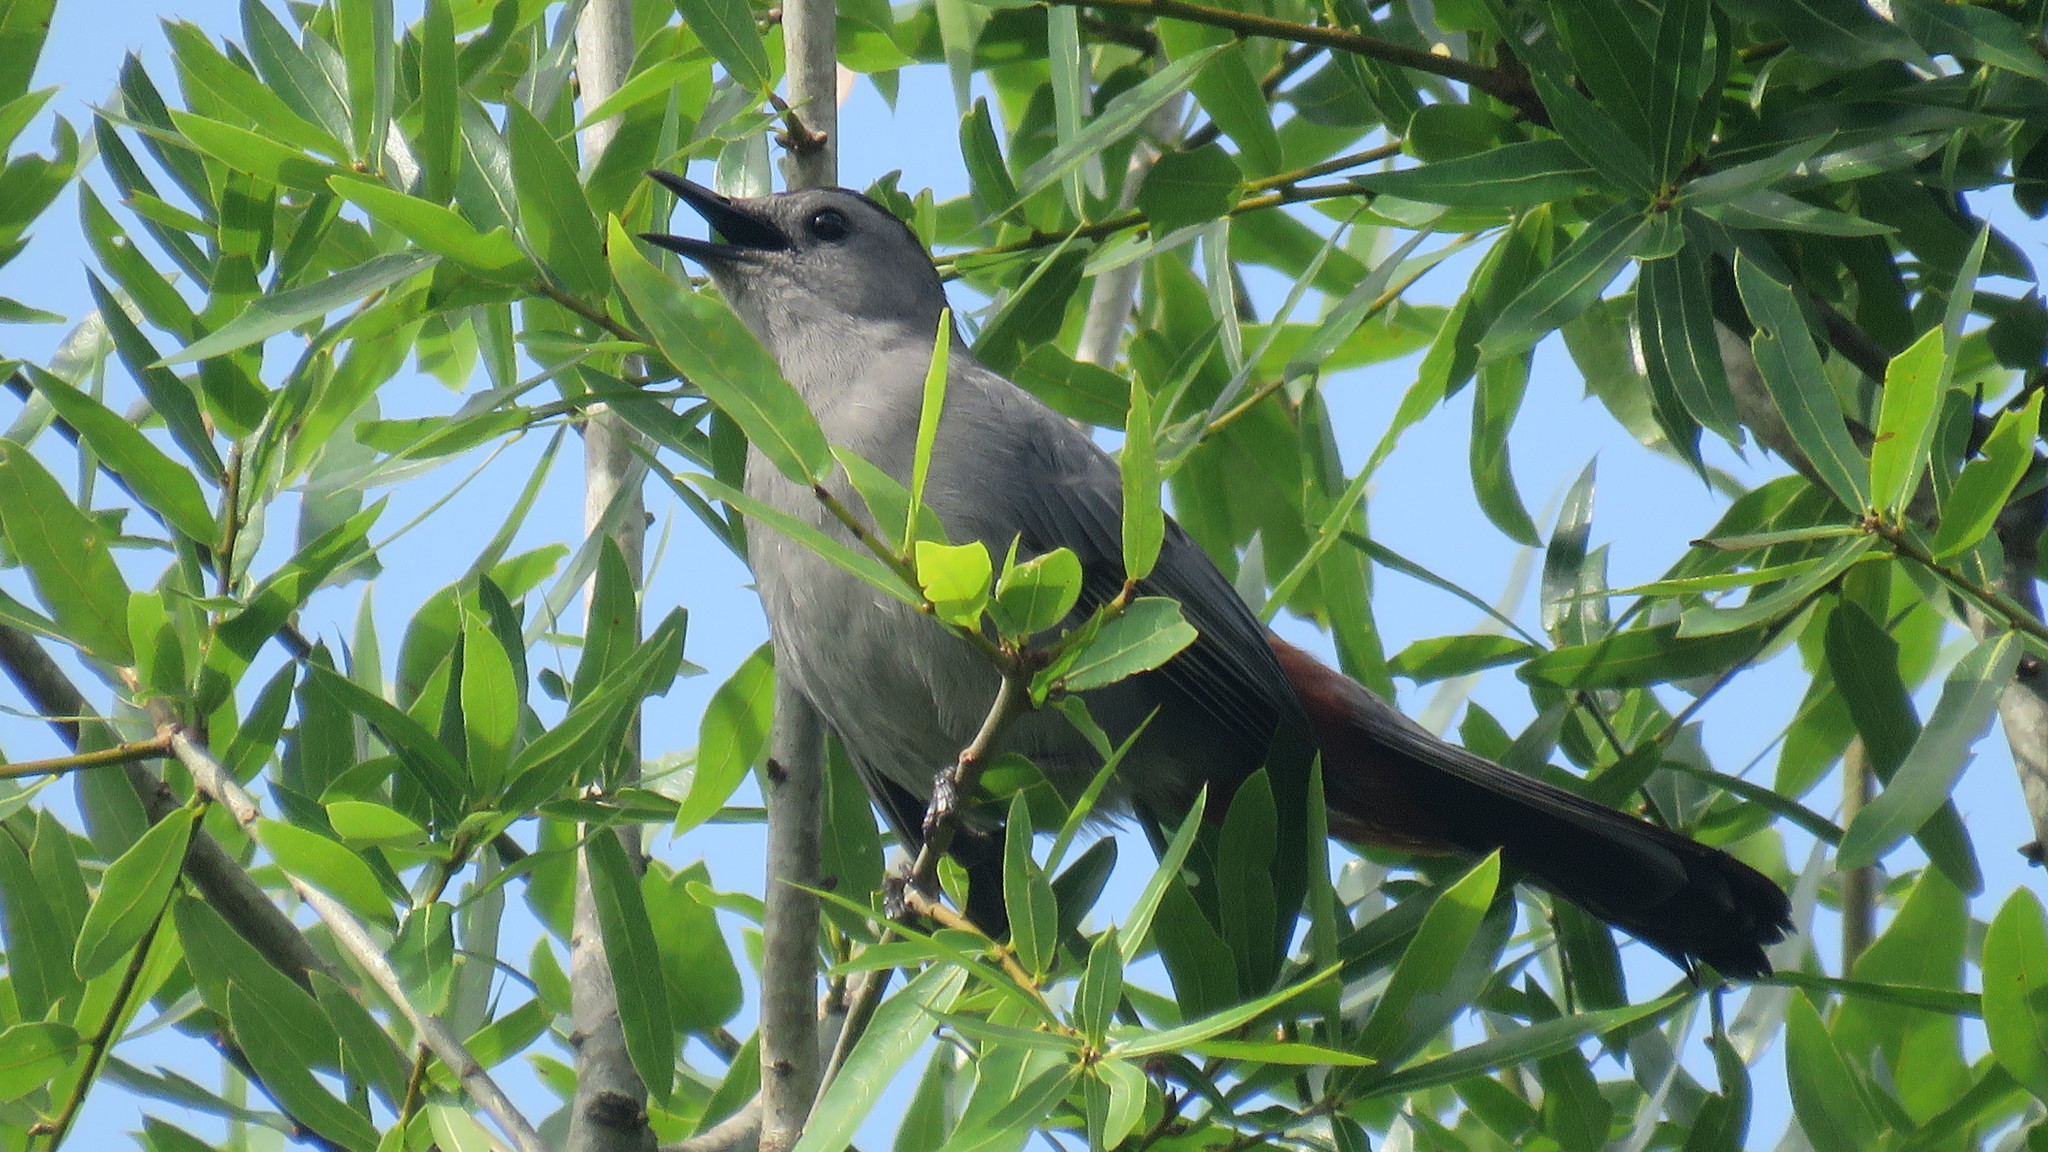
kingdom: Animalia
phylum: Chordata
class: Aves
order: Passeriformes
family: Mimidae
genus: Dumetella
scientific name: Dumetella carolinensis
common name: Gray catbird
